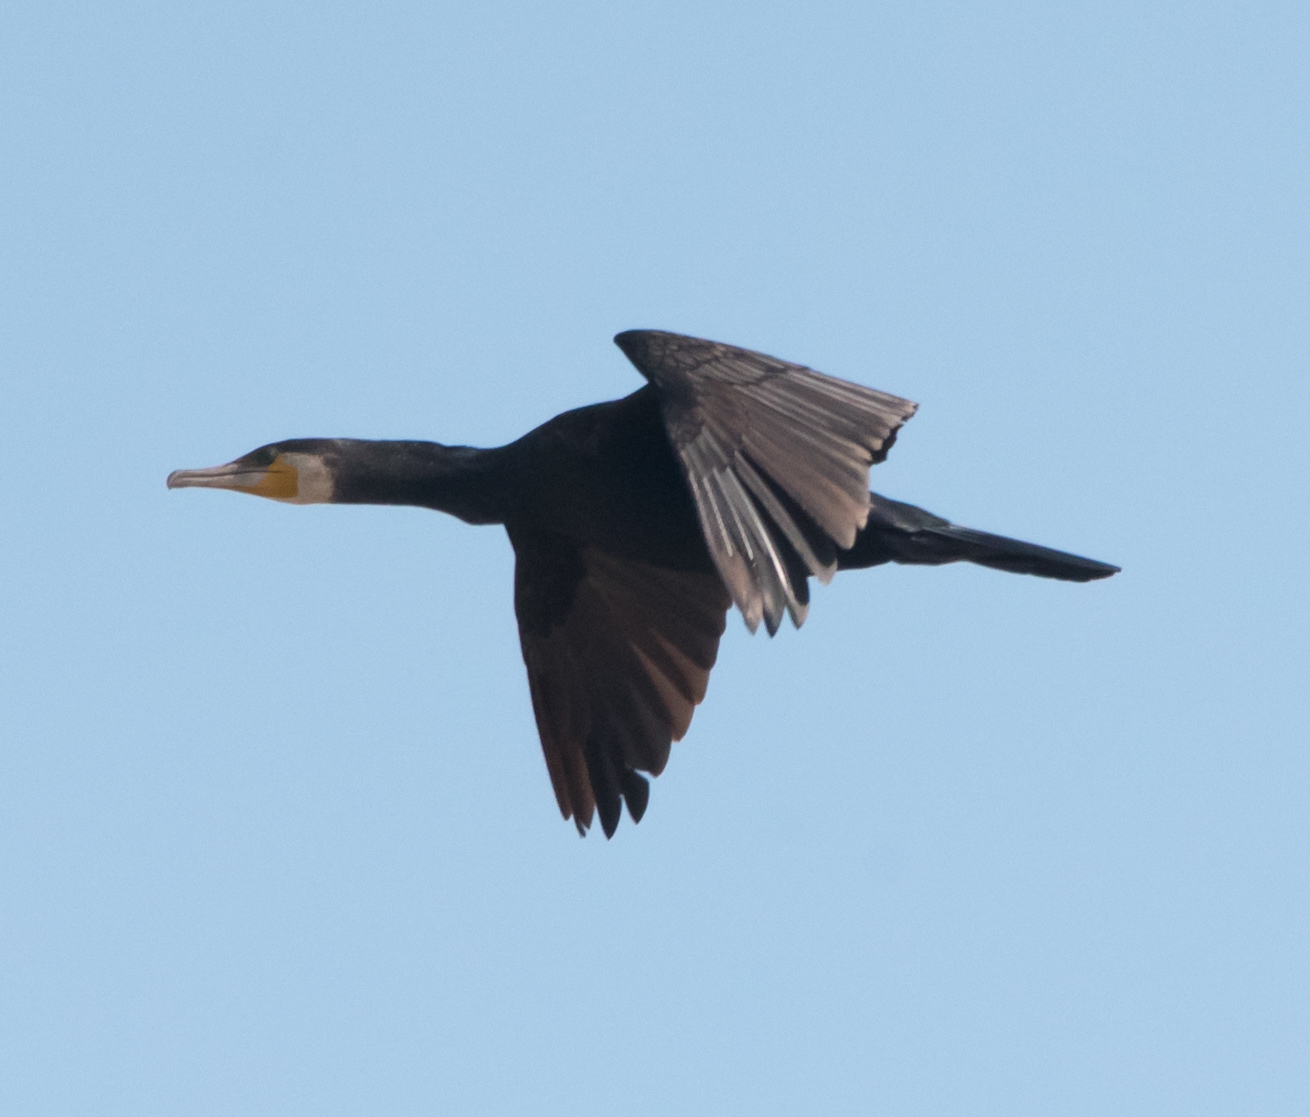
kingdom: Animalia
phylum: Chordata
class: Aves
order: Suliformes
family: Phalacrocoracidae
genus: Phalacrocorax
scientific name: Phalacrocorax carbo
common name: Great cormorant
